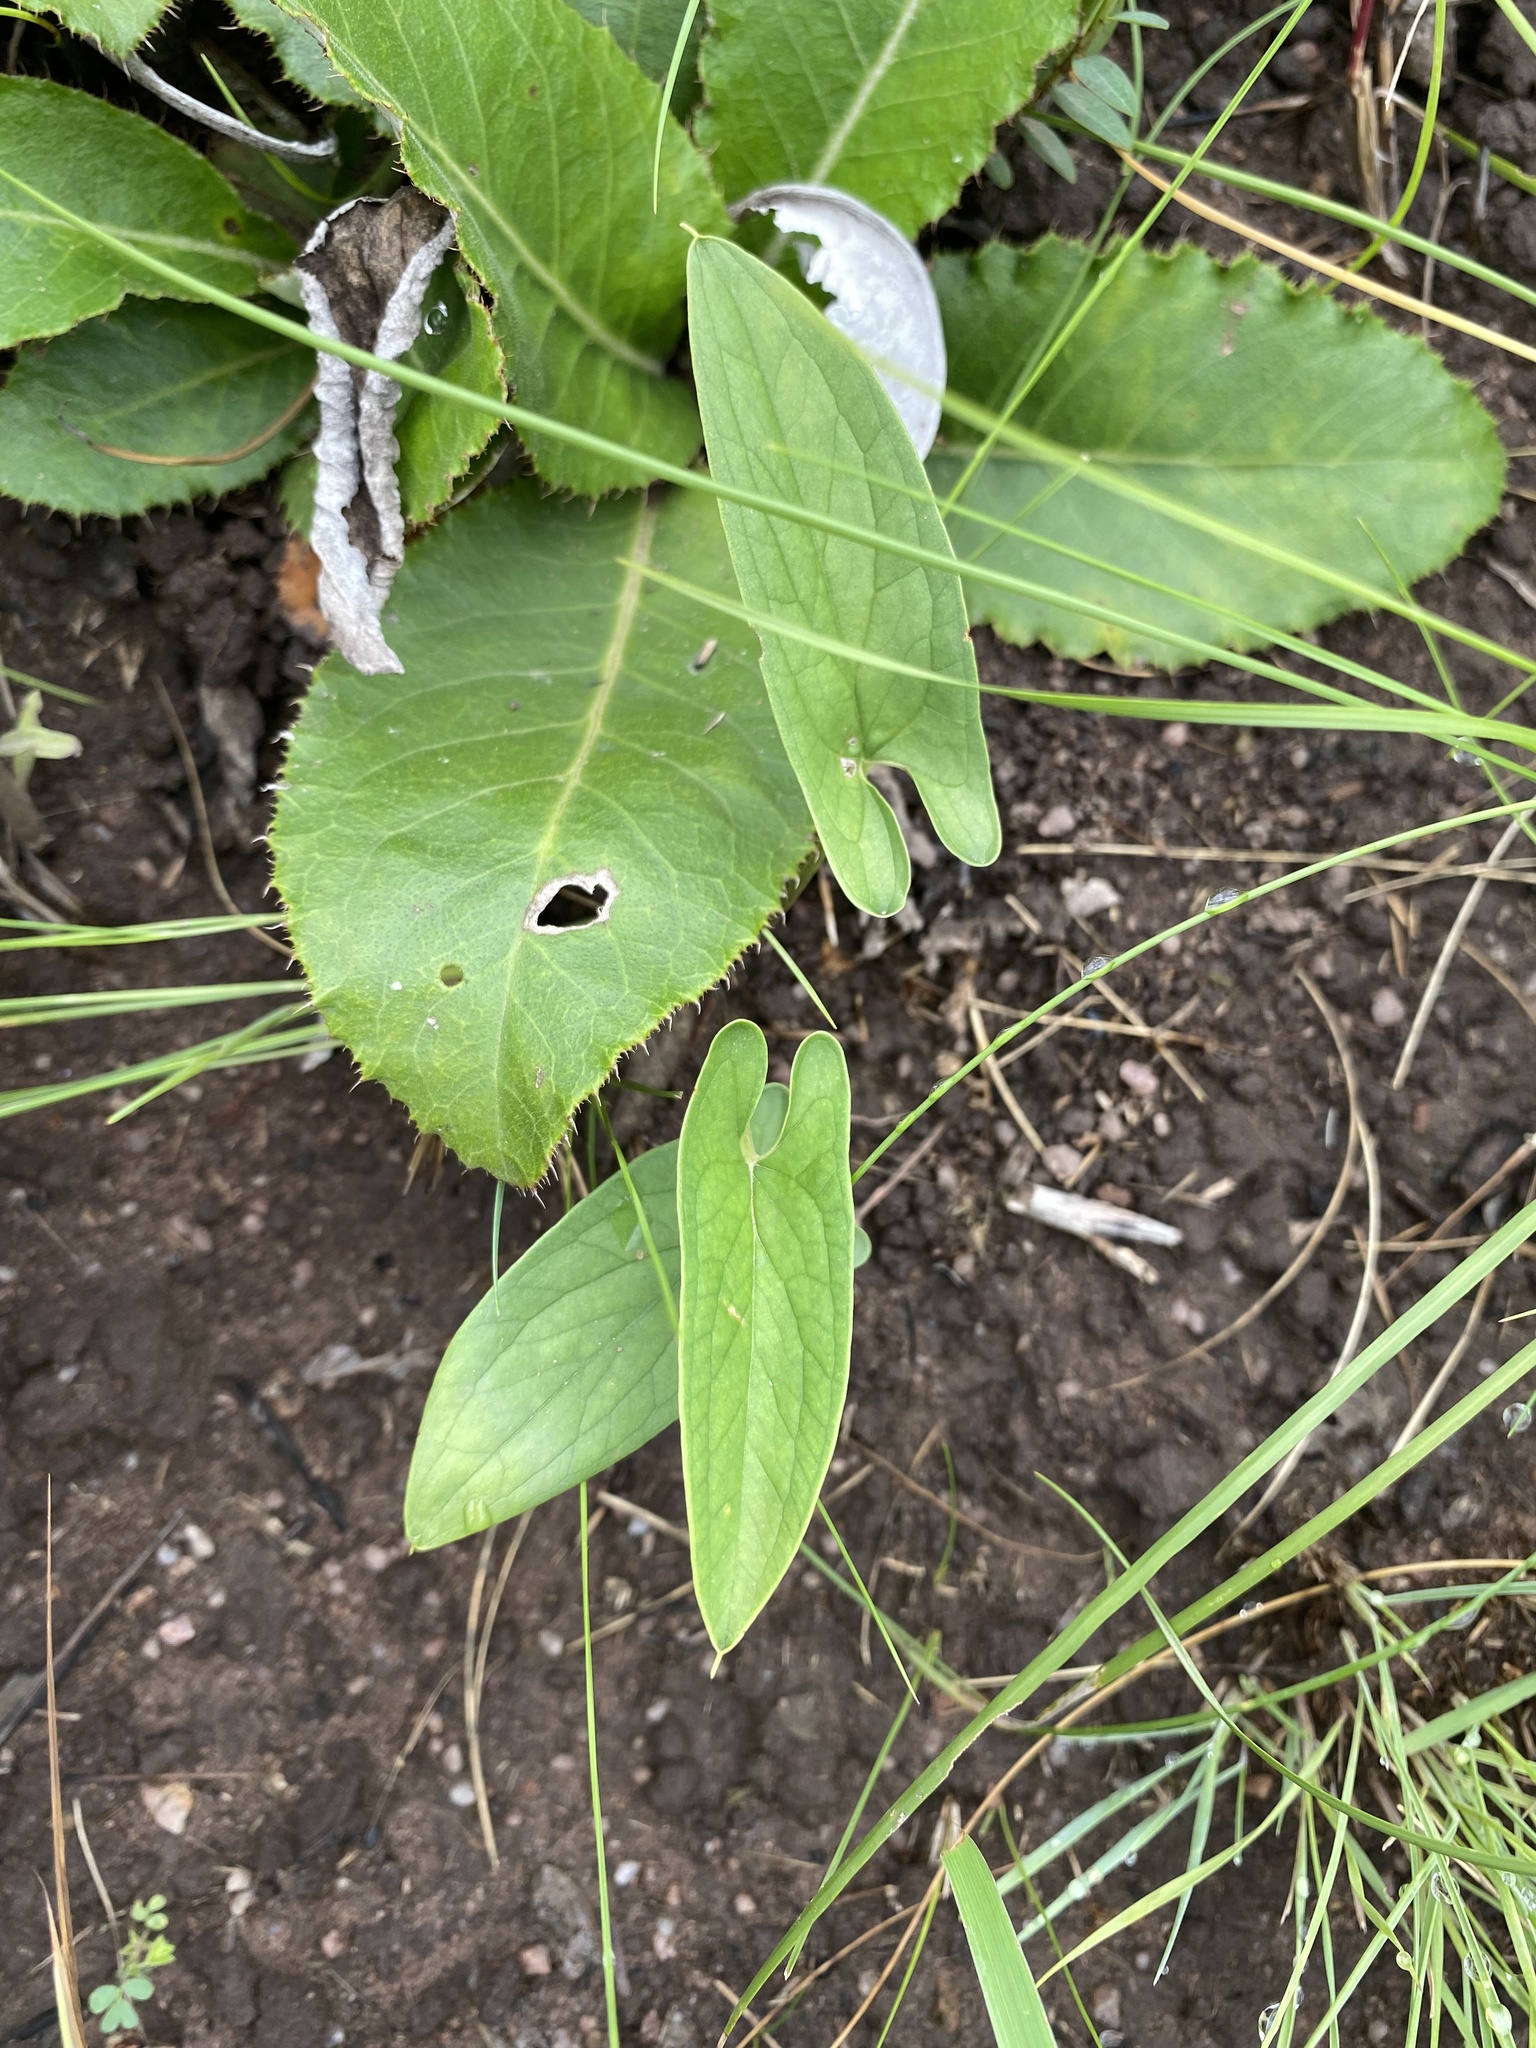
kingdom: Plantae
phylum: Tracheophyta
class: Liliopsida
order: Alismatales
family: Araceae
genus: Stylochaeton
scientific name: Stylochaeton natalensis
